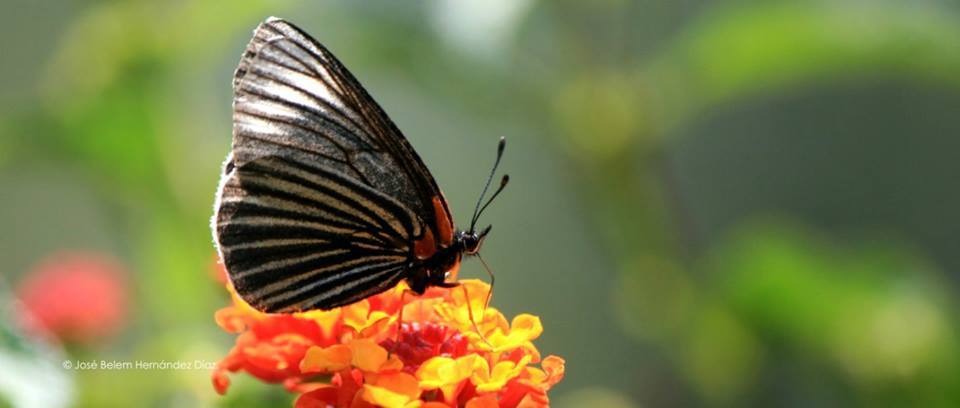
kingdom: Animalia
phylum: Arthropoda
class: Insecta
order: Lepidoptera
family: Nymphalidae
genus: Chlosyne
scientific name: Chlosyne ehrenbergii
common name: White-rayed patch
